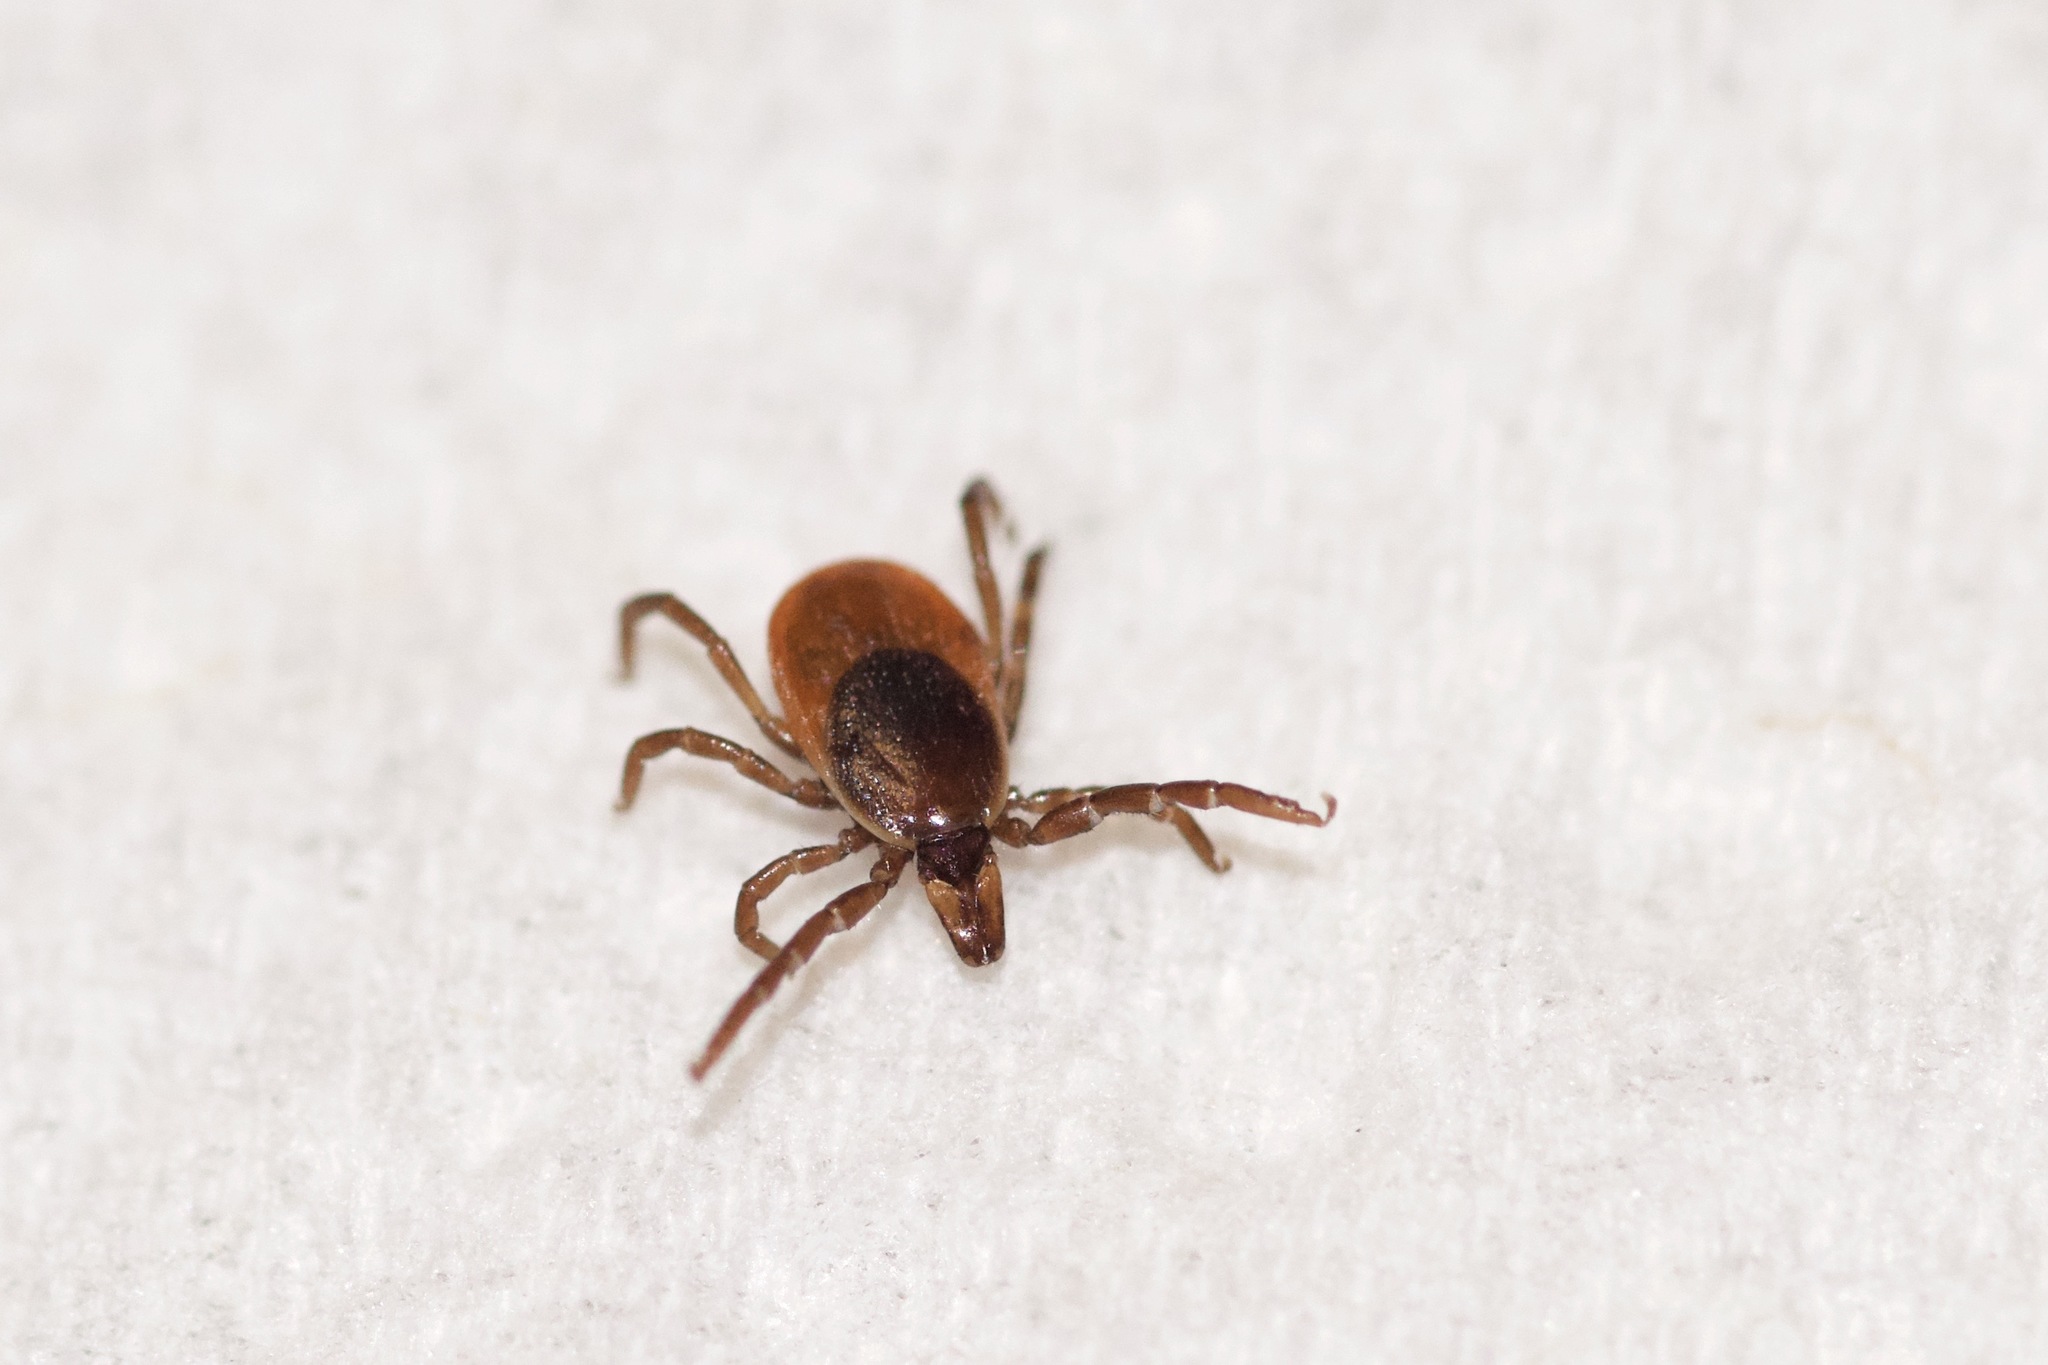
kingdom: Animalia
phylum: Arthropoda
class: Arachnida
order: Ixodida
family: Ixodidae
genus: Ixodes
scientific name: Ixodes scapularis
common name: Black legged tick
